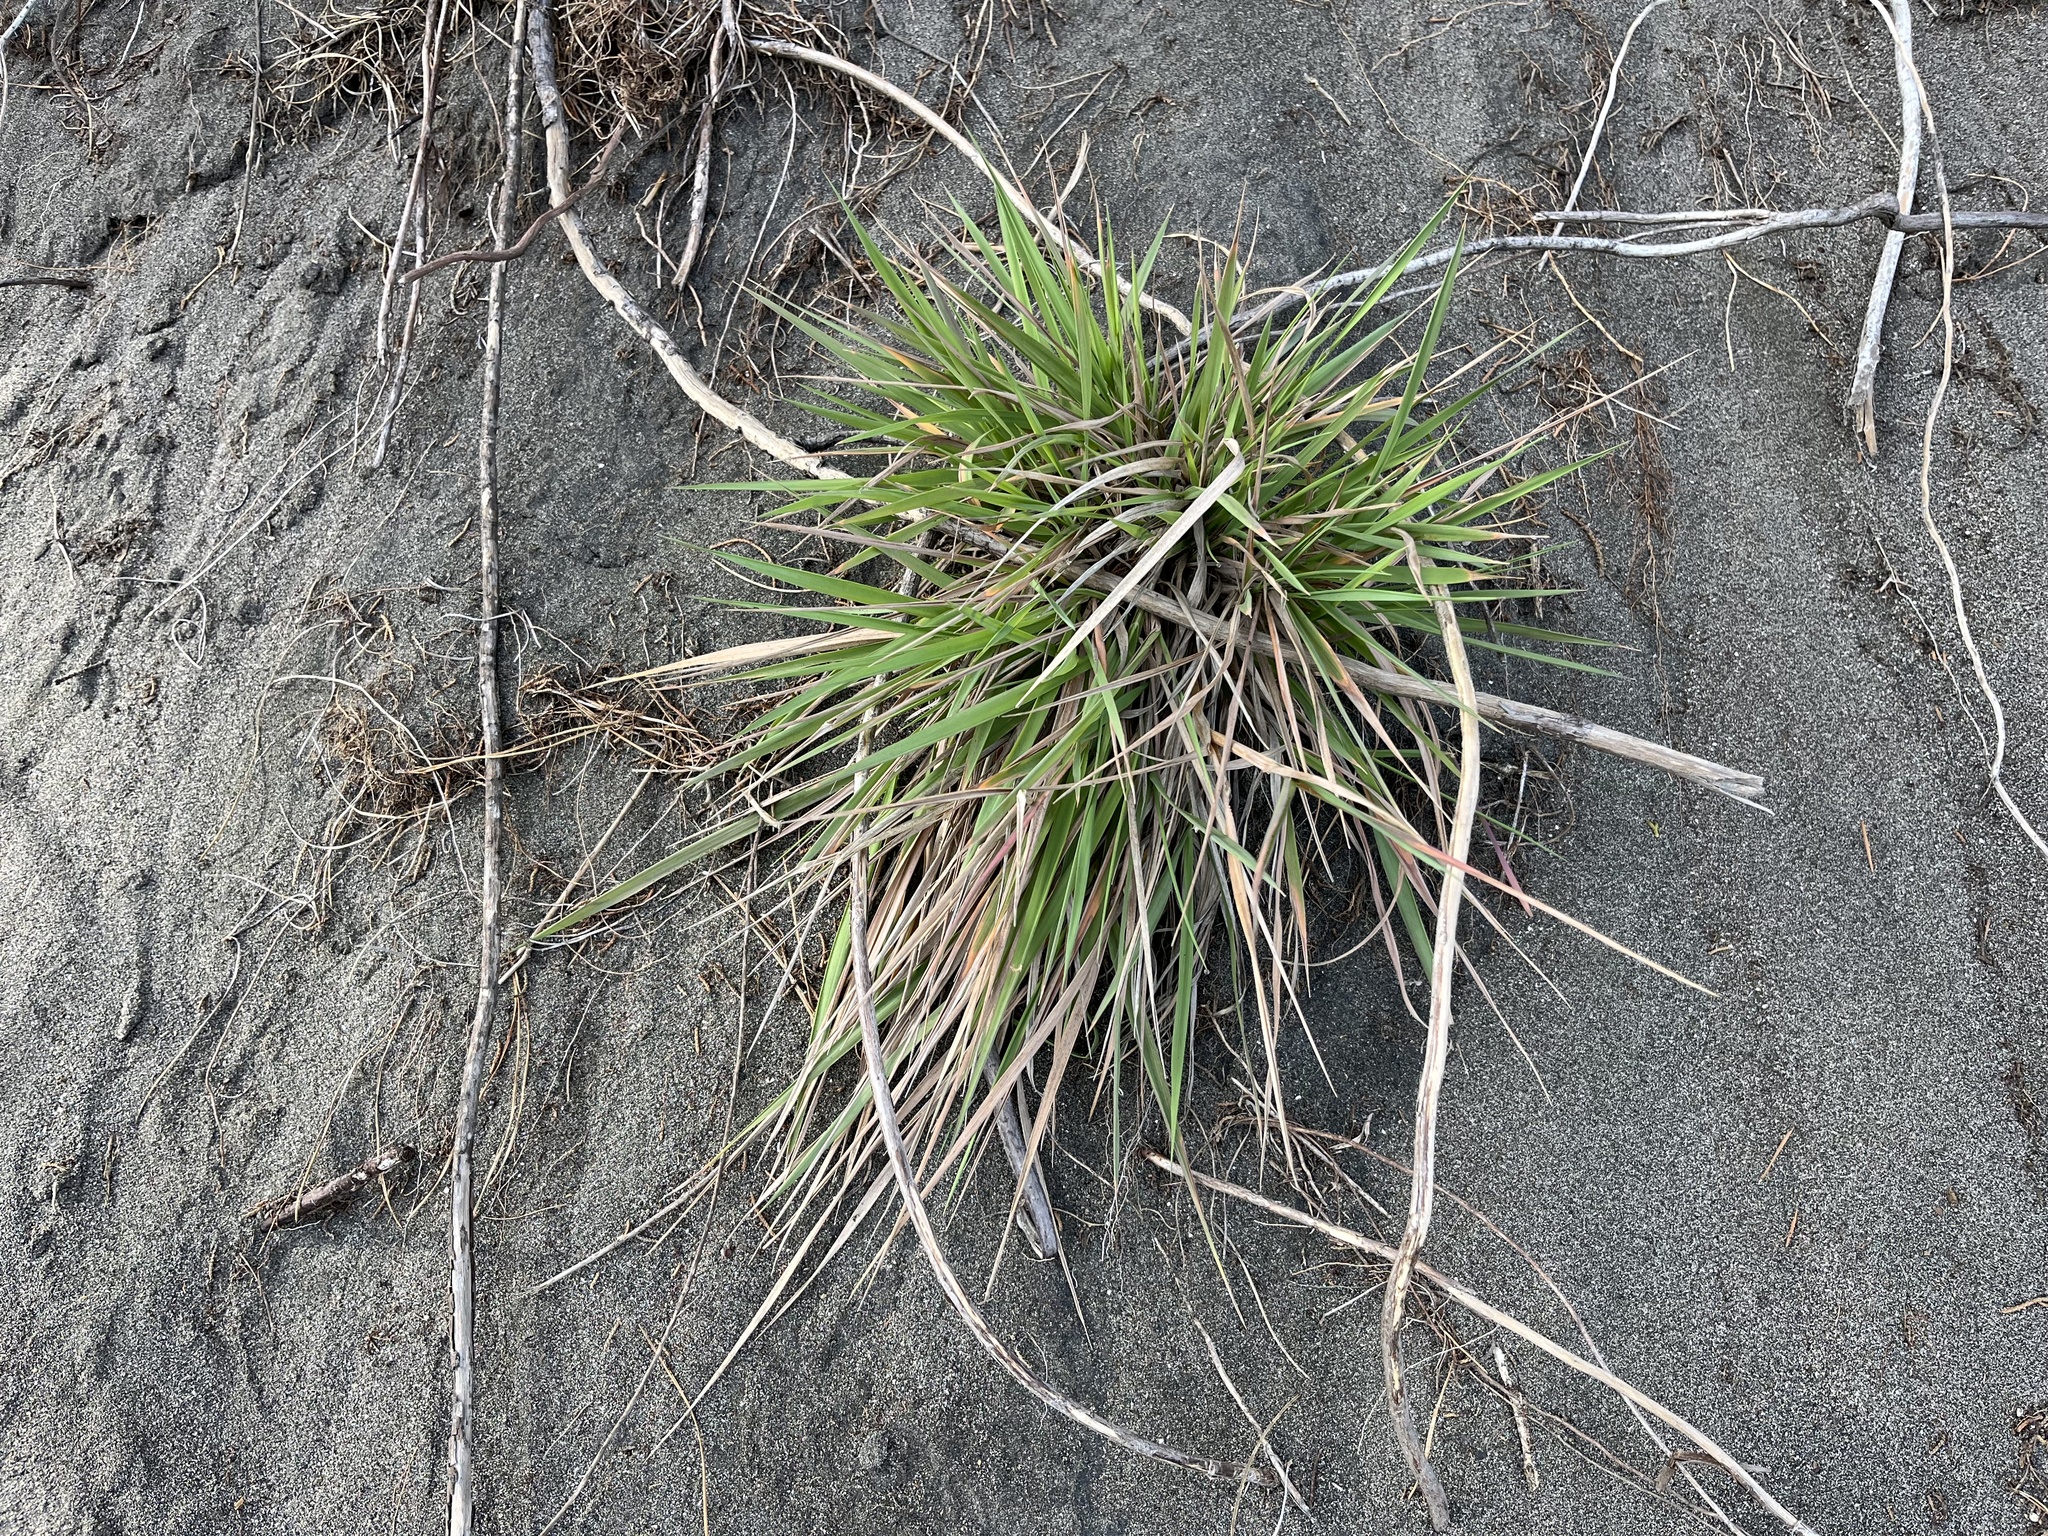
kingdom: Plantae
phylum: Tracheophyta
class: Liliopsida
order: Poales
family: Poaceae
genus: Lachnagrostis
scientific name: Lachnagrostis billardierei
